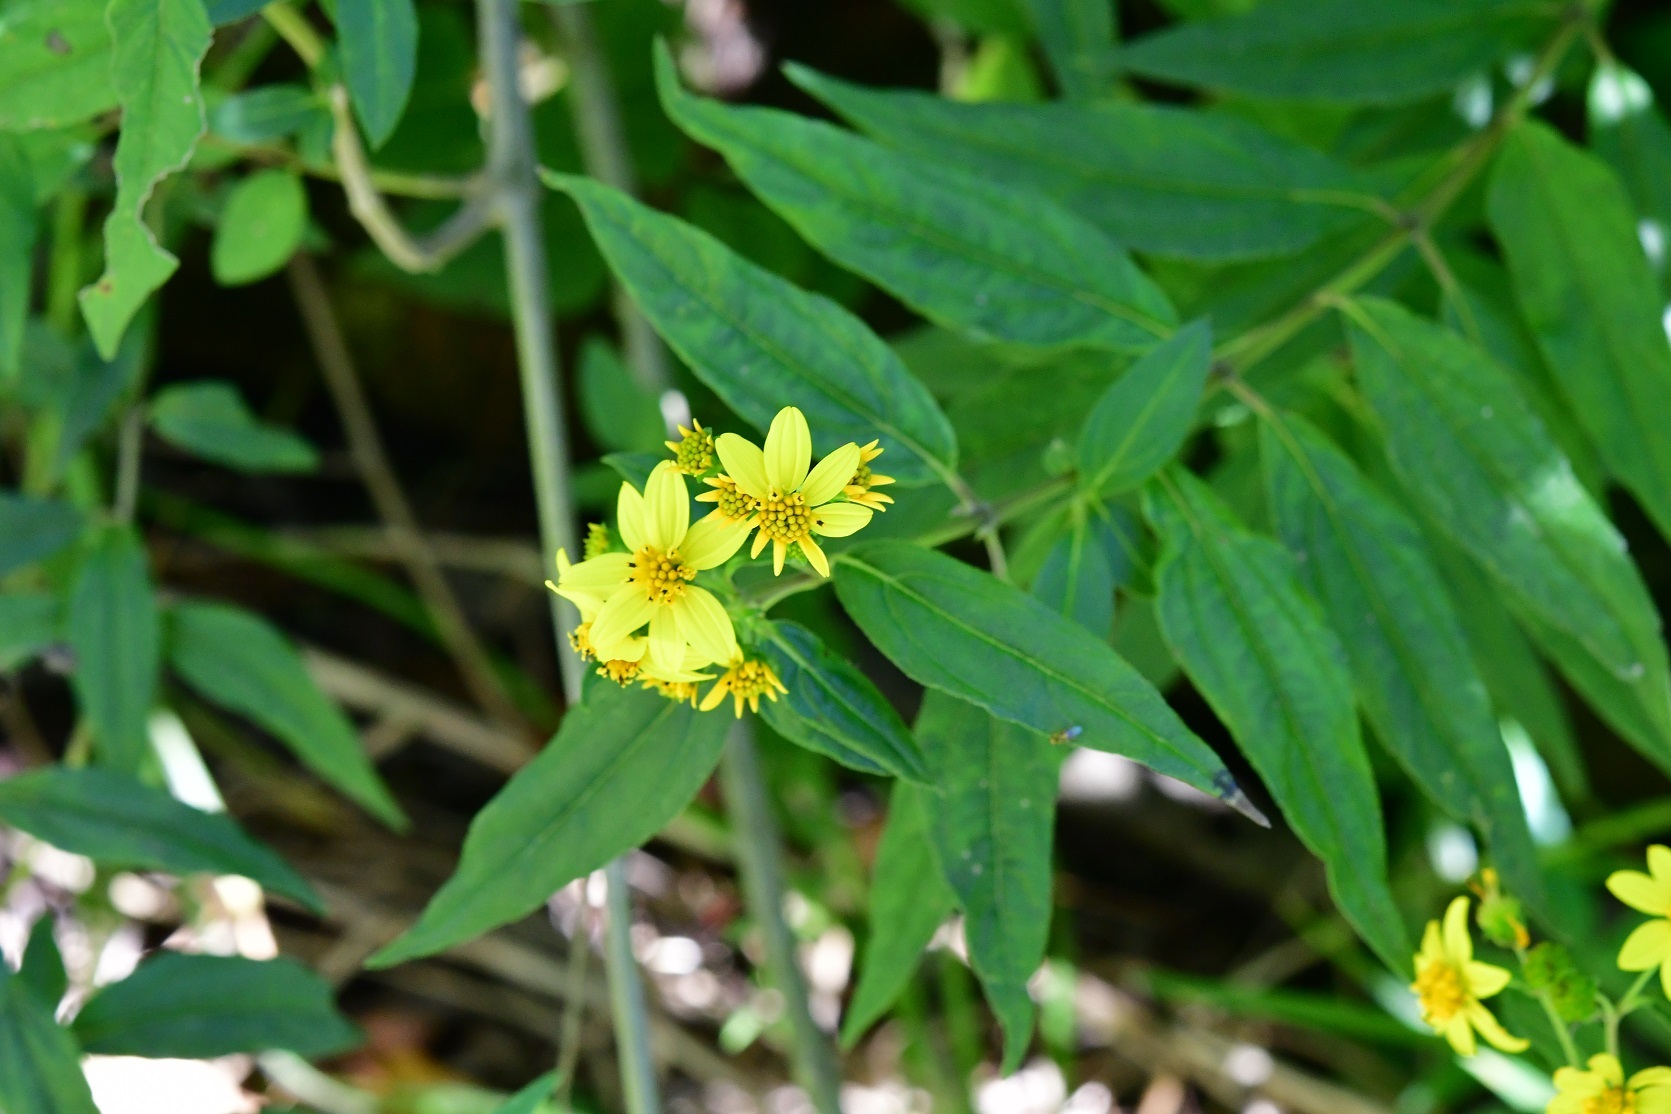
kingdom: Plantae
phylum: Tracheophyta
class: Magnoliopsida
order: Asterales
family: Asteraceae
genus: Perymenium
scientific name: Perymenium ghiesbreghtii
